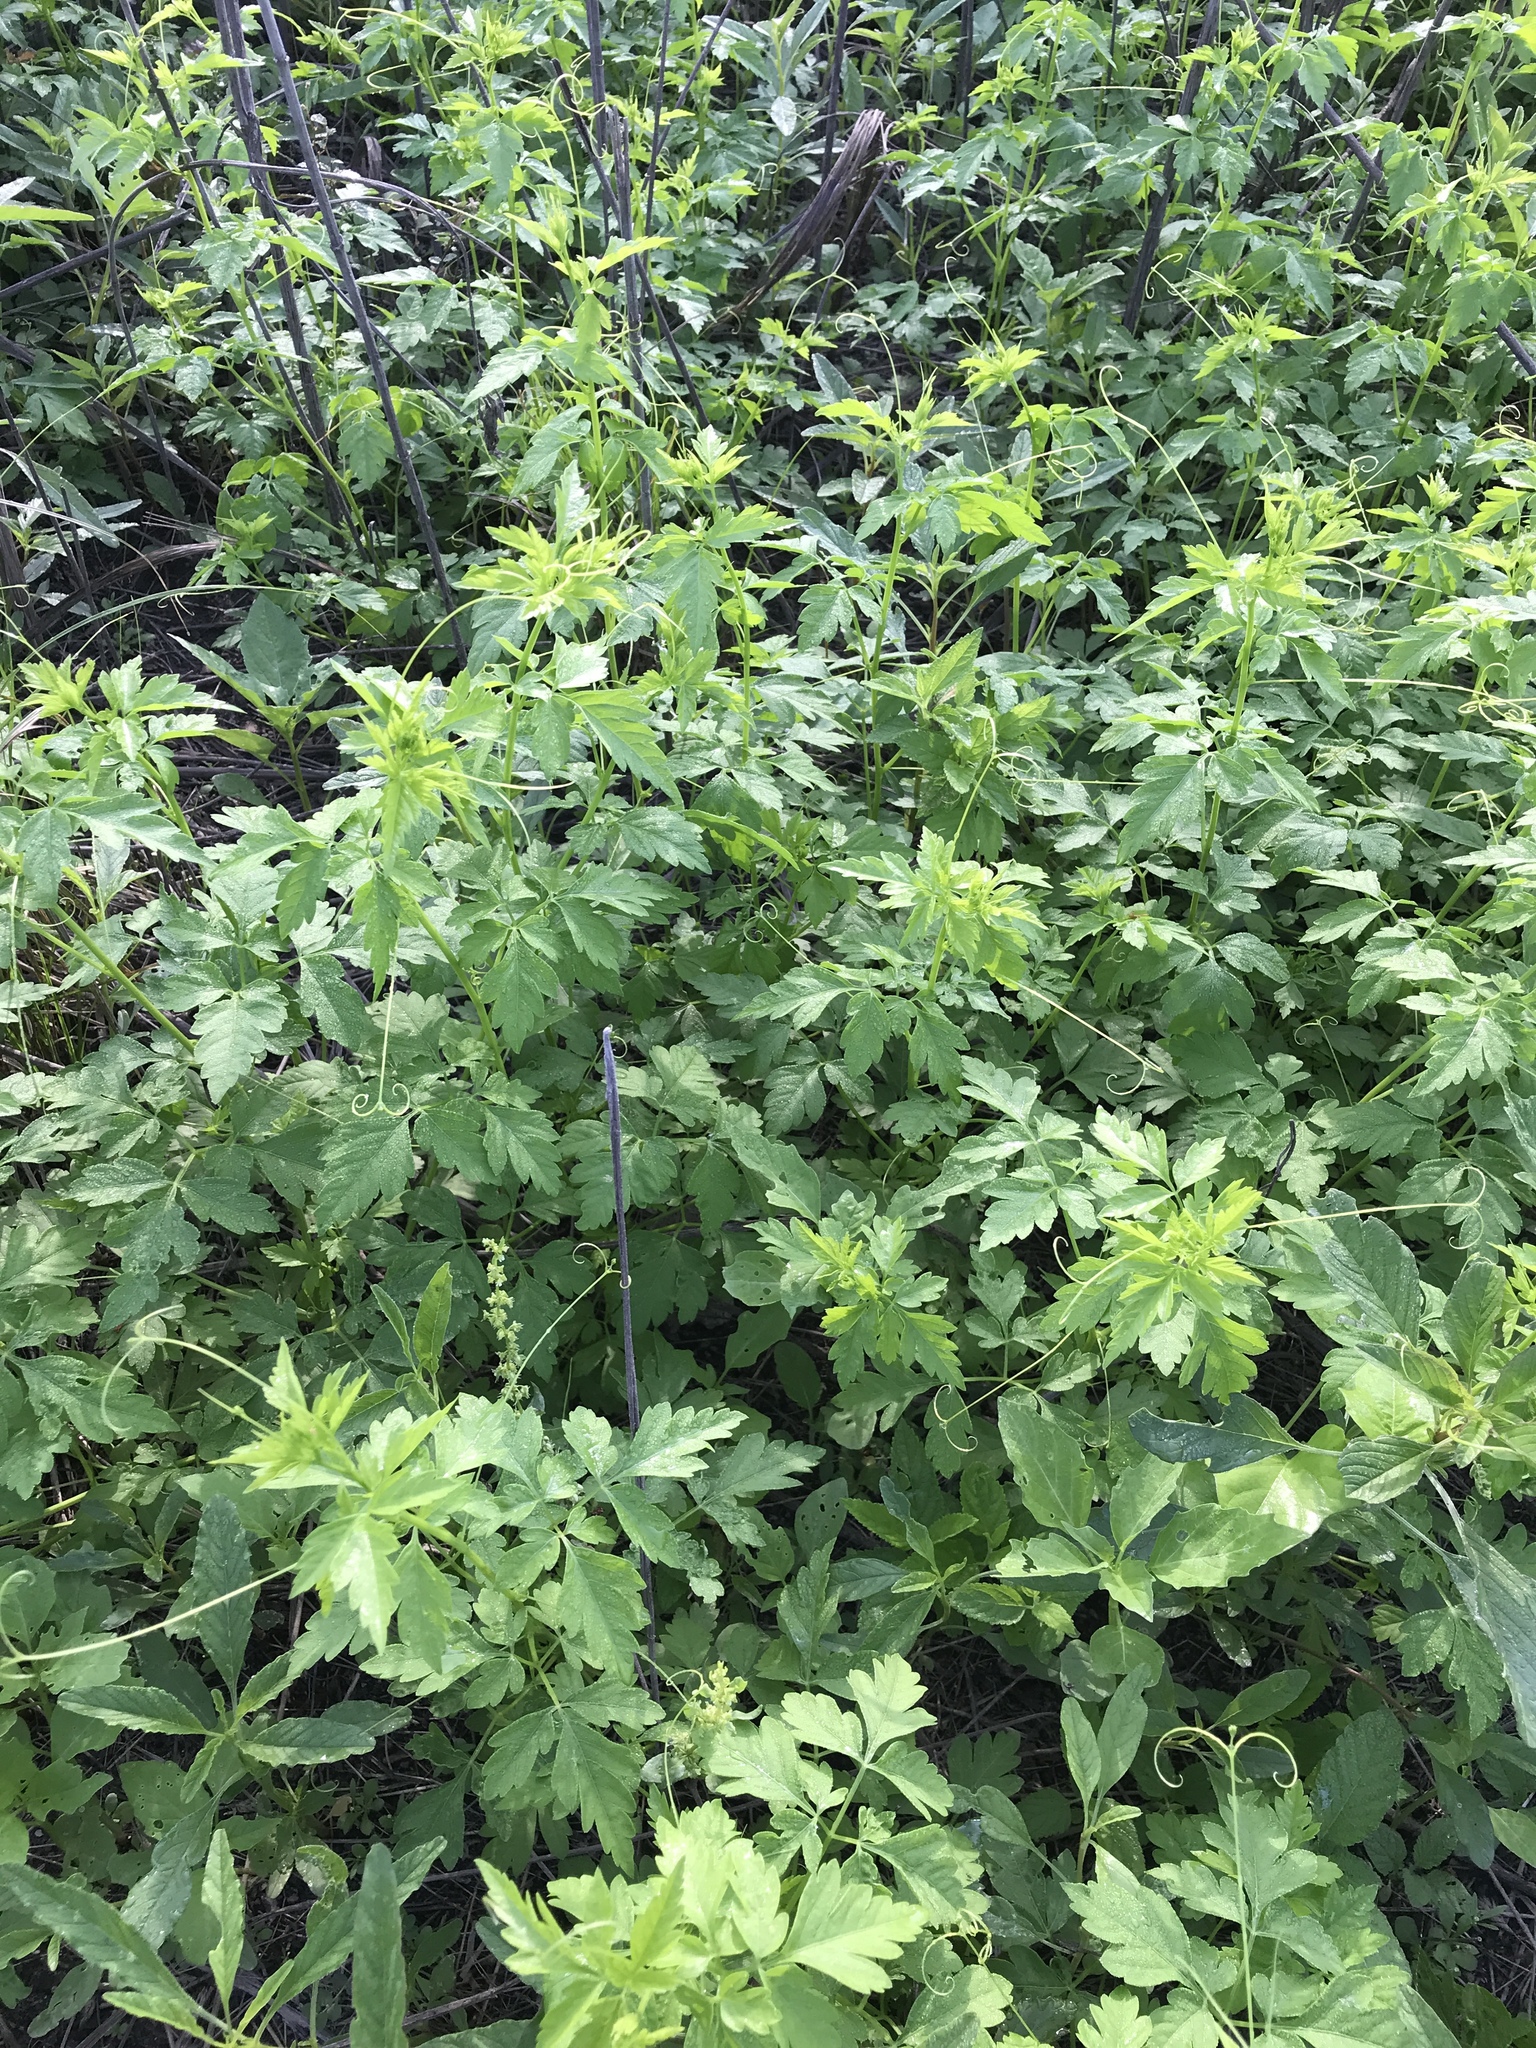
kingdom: Plantae
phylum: Tracheophyta
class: Magnoliopsida
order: Sapindales
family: Sapindaceae
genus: Cardiospermum
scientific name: Cardiospermum halicacabum
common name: Balloon vine
